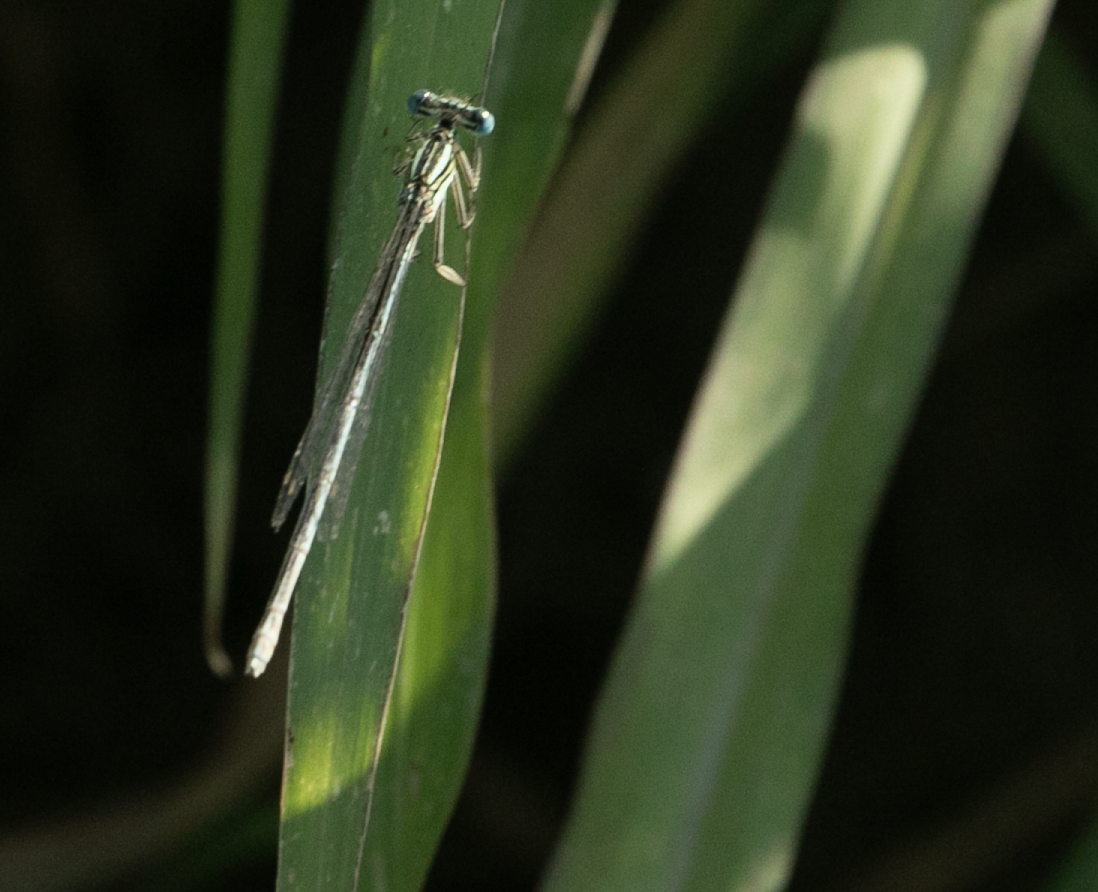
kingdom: Animalia
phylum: Arthropoda
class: Insecta
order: Odonata
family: Platycnemididae
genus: Platycnemis
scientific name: Platycnemis pennipes
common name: White-legged damselfly
